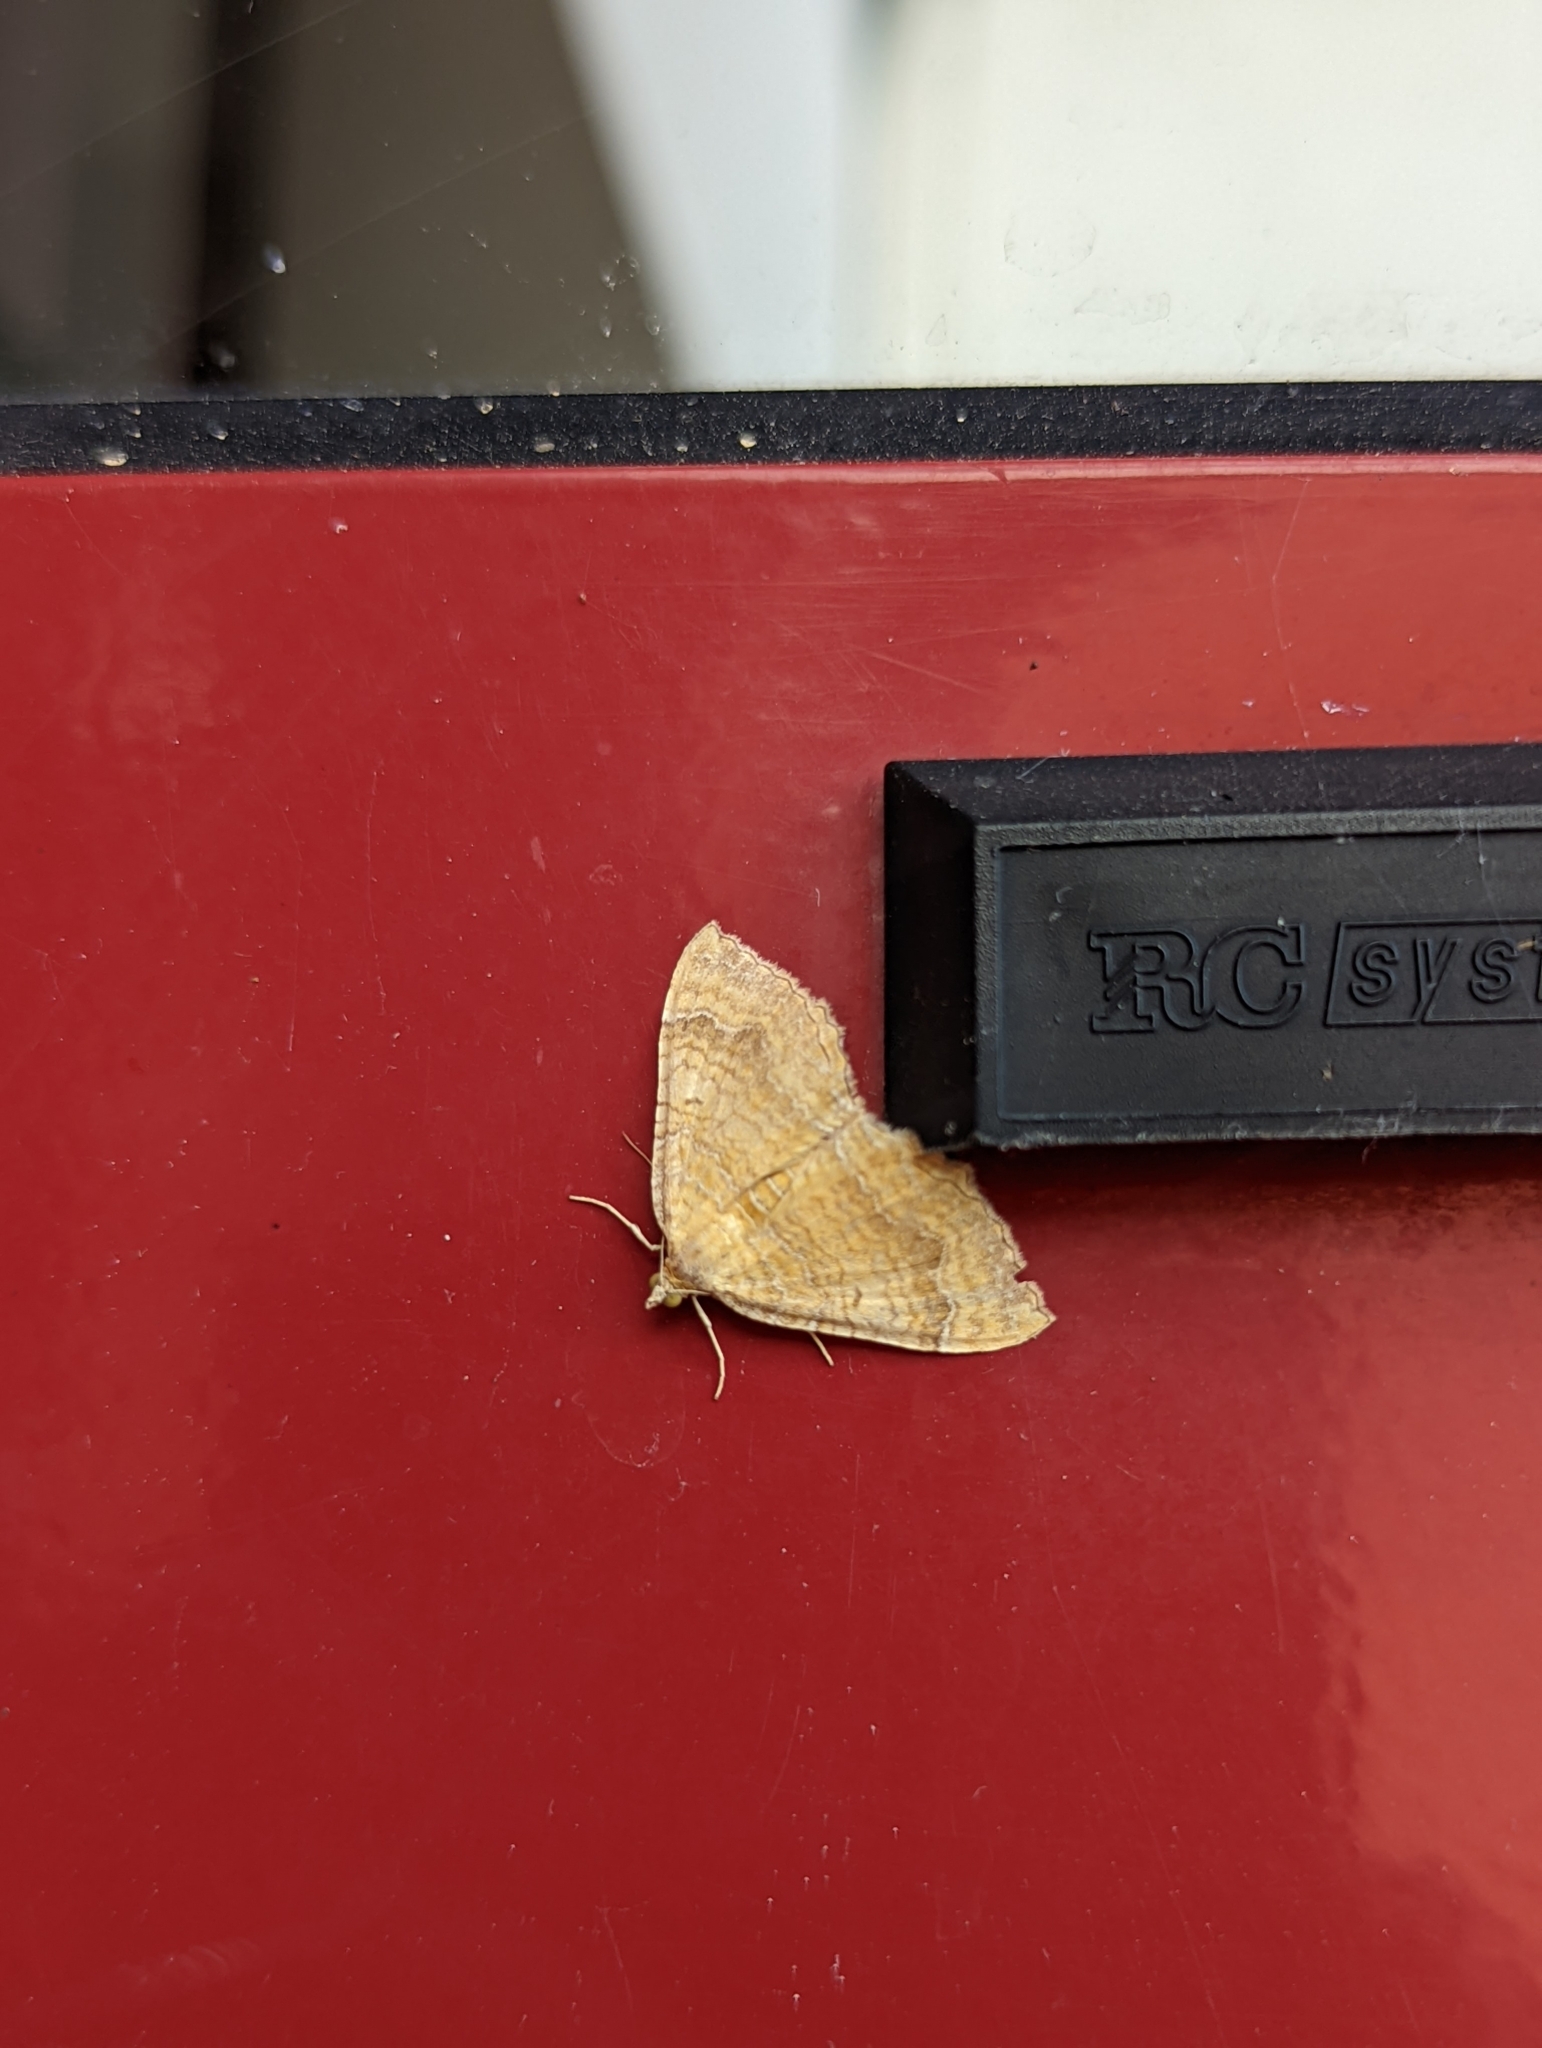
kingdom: Animalia
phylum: Arthropoda
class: Insecta
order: Lepidoptera
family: Geometridae
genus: Camptogramma
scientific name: Camptogramma bilineata
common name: Yellow shell
